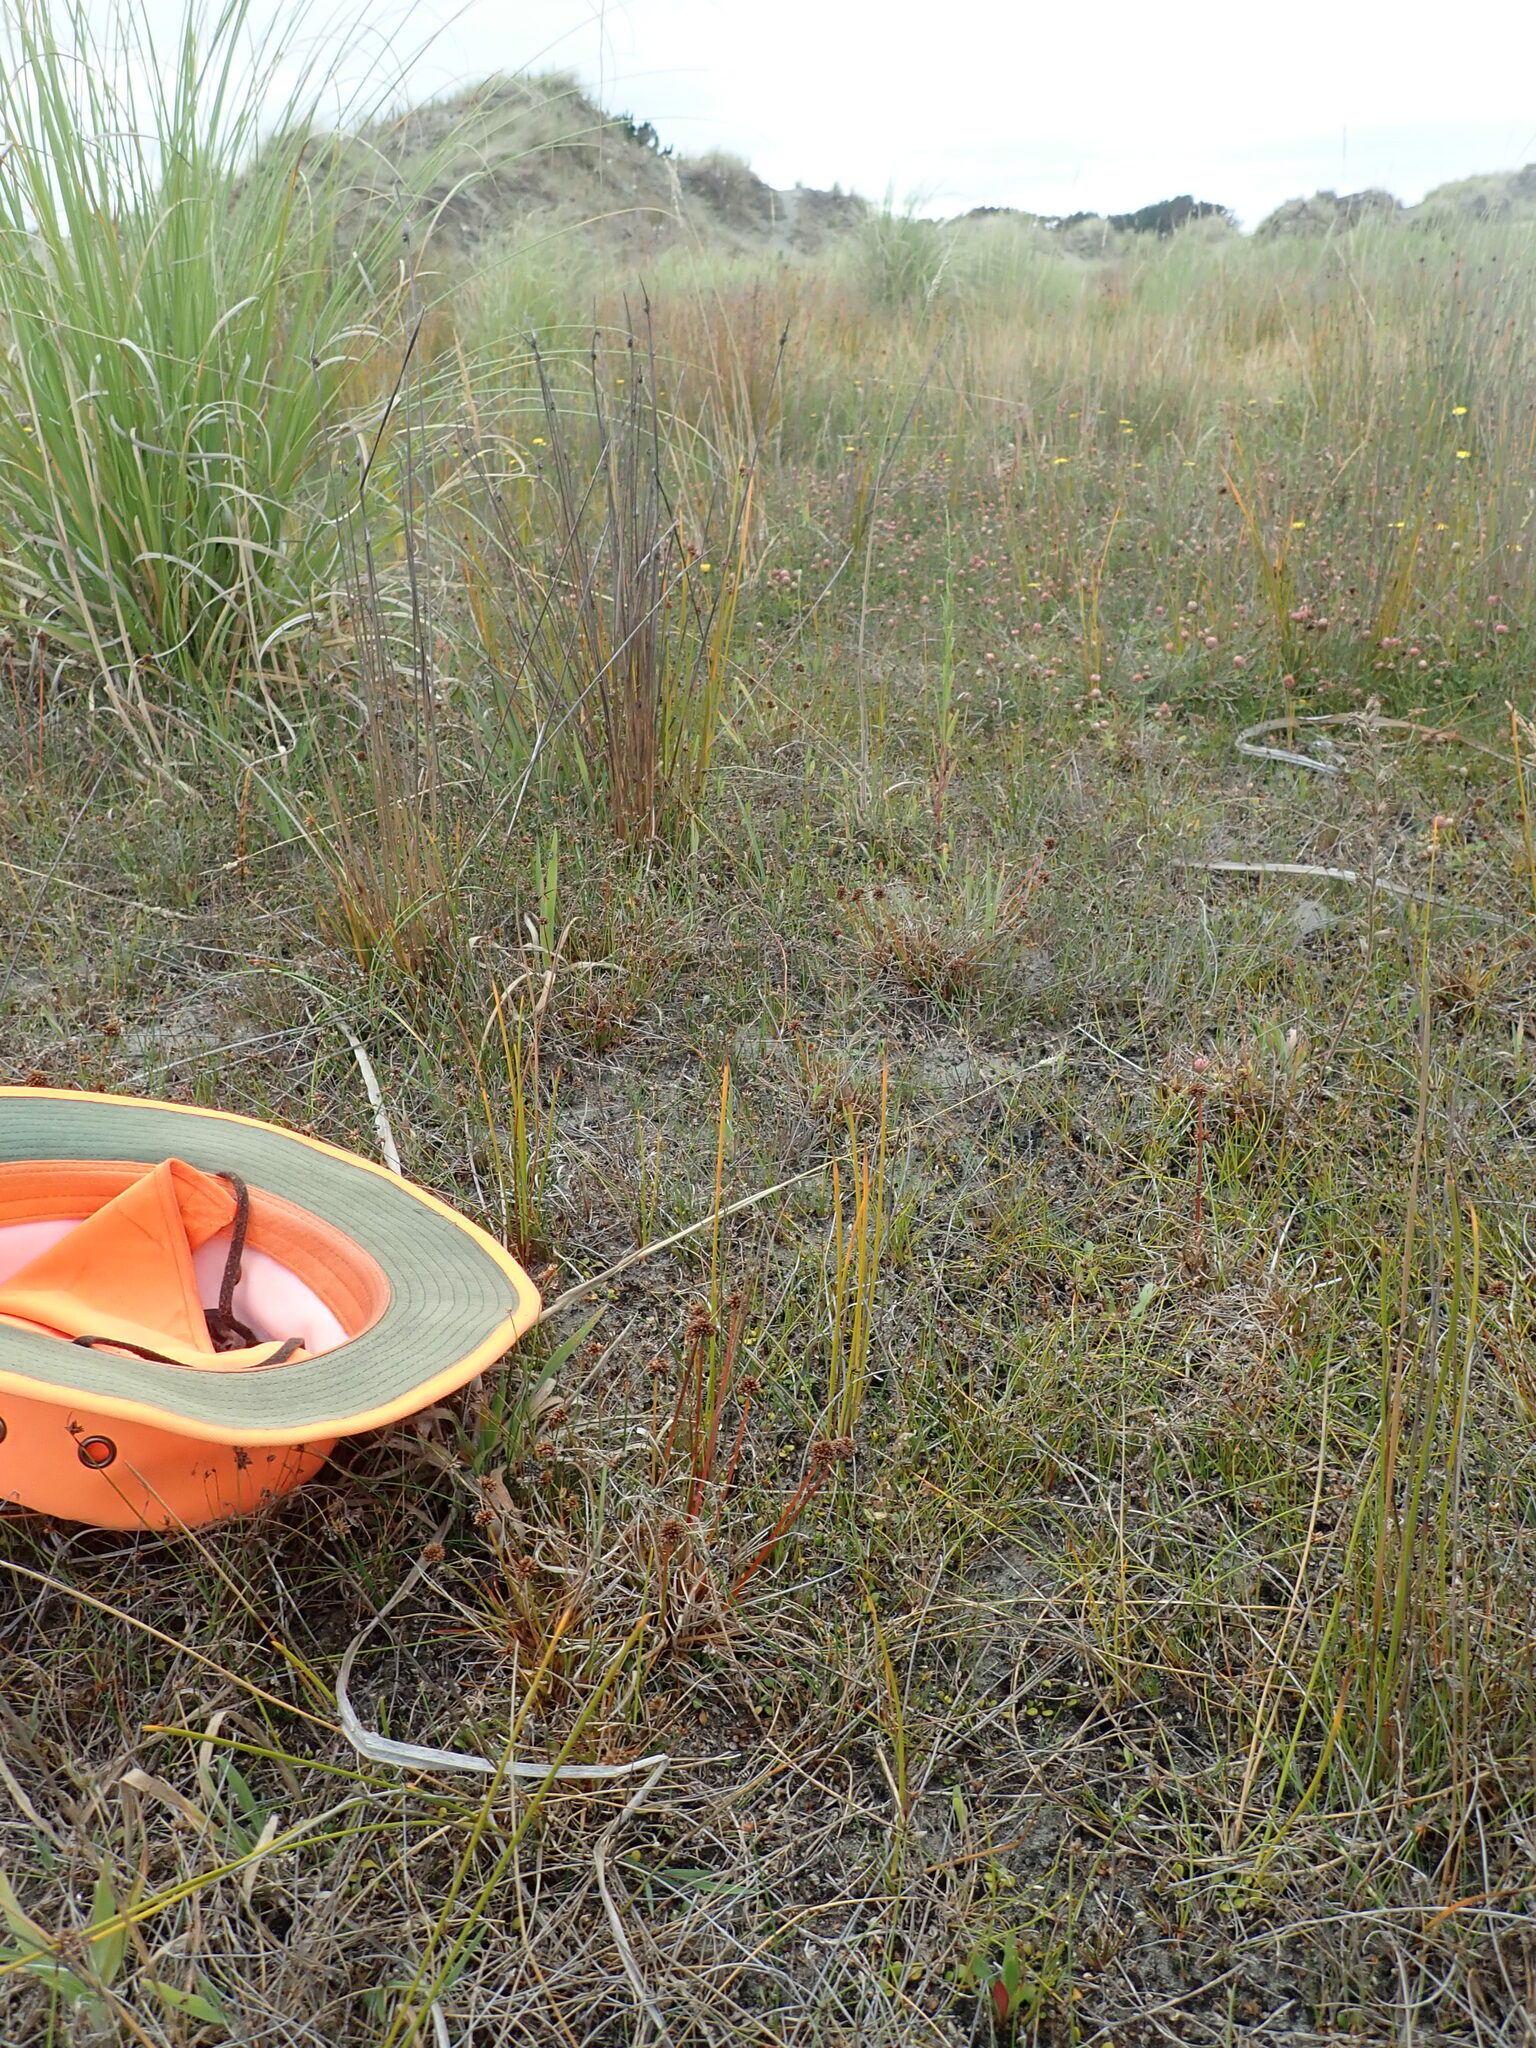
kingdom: Plantae
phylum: Tracheophyta
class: Liliopsida
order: Poales
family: Juncaceae
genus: Juncus
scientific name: Juncus caespiticius
